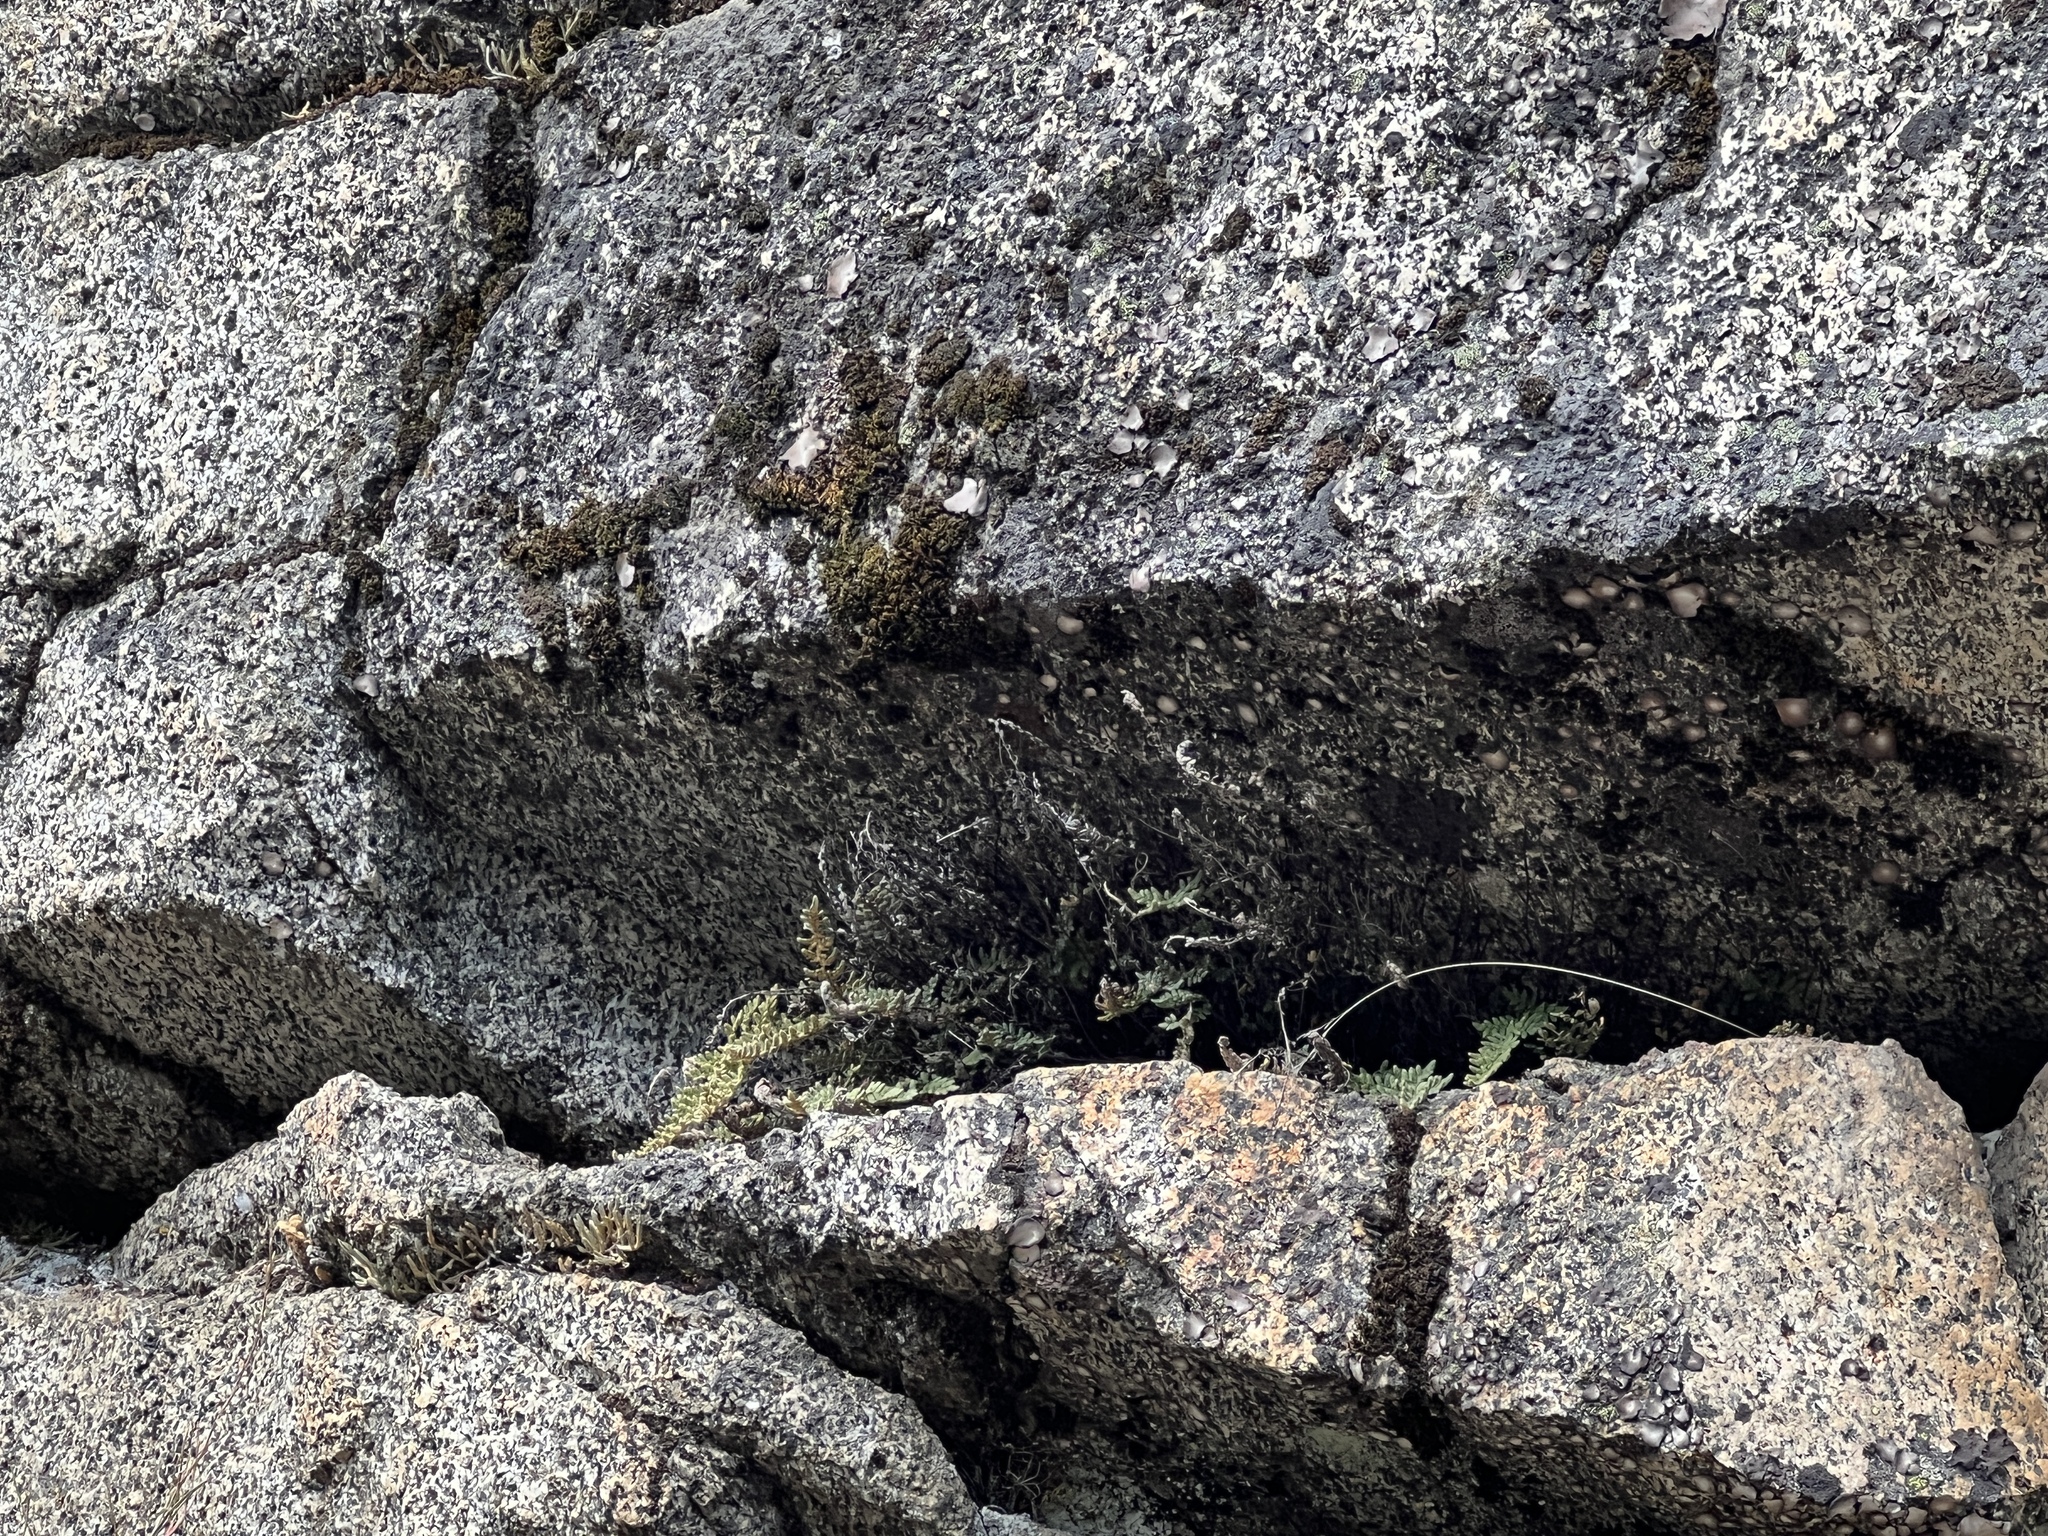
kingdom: Plantae
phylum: Tracheophyta
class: Polypodiopsida
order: Polypodiales
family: Pteridaceae
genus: Myriopteris
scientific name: Myriopteris gracillima
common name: Lace fern
